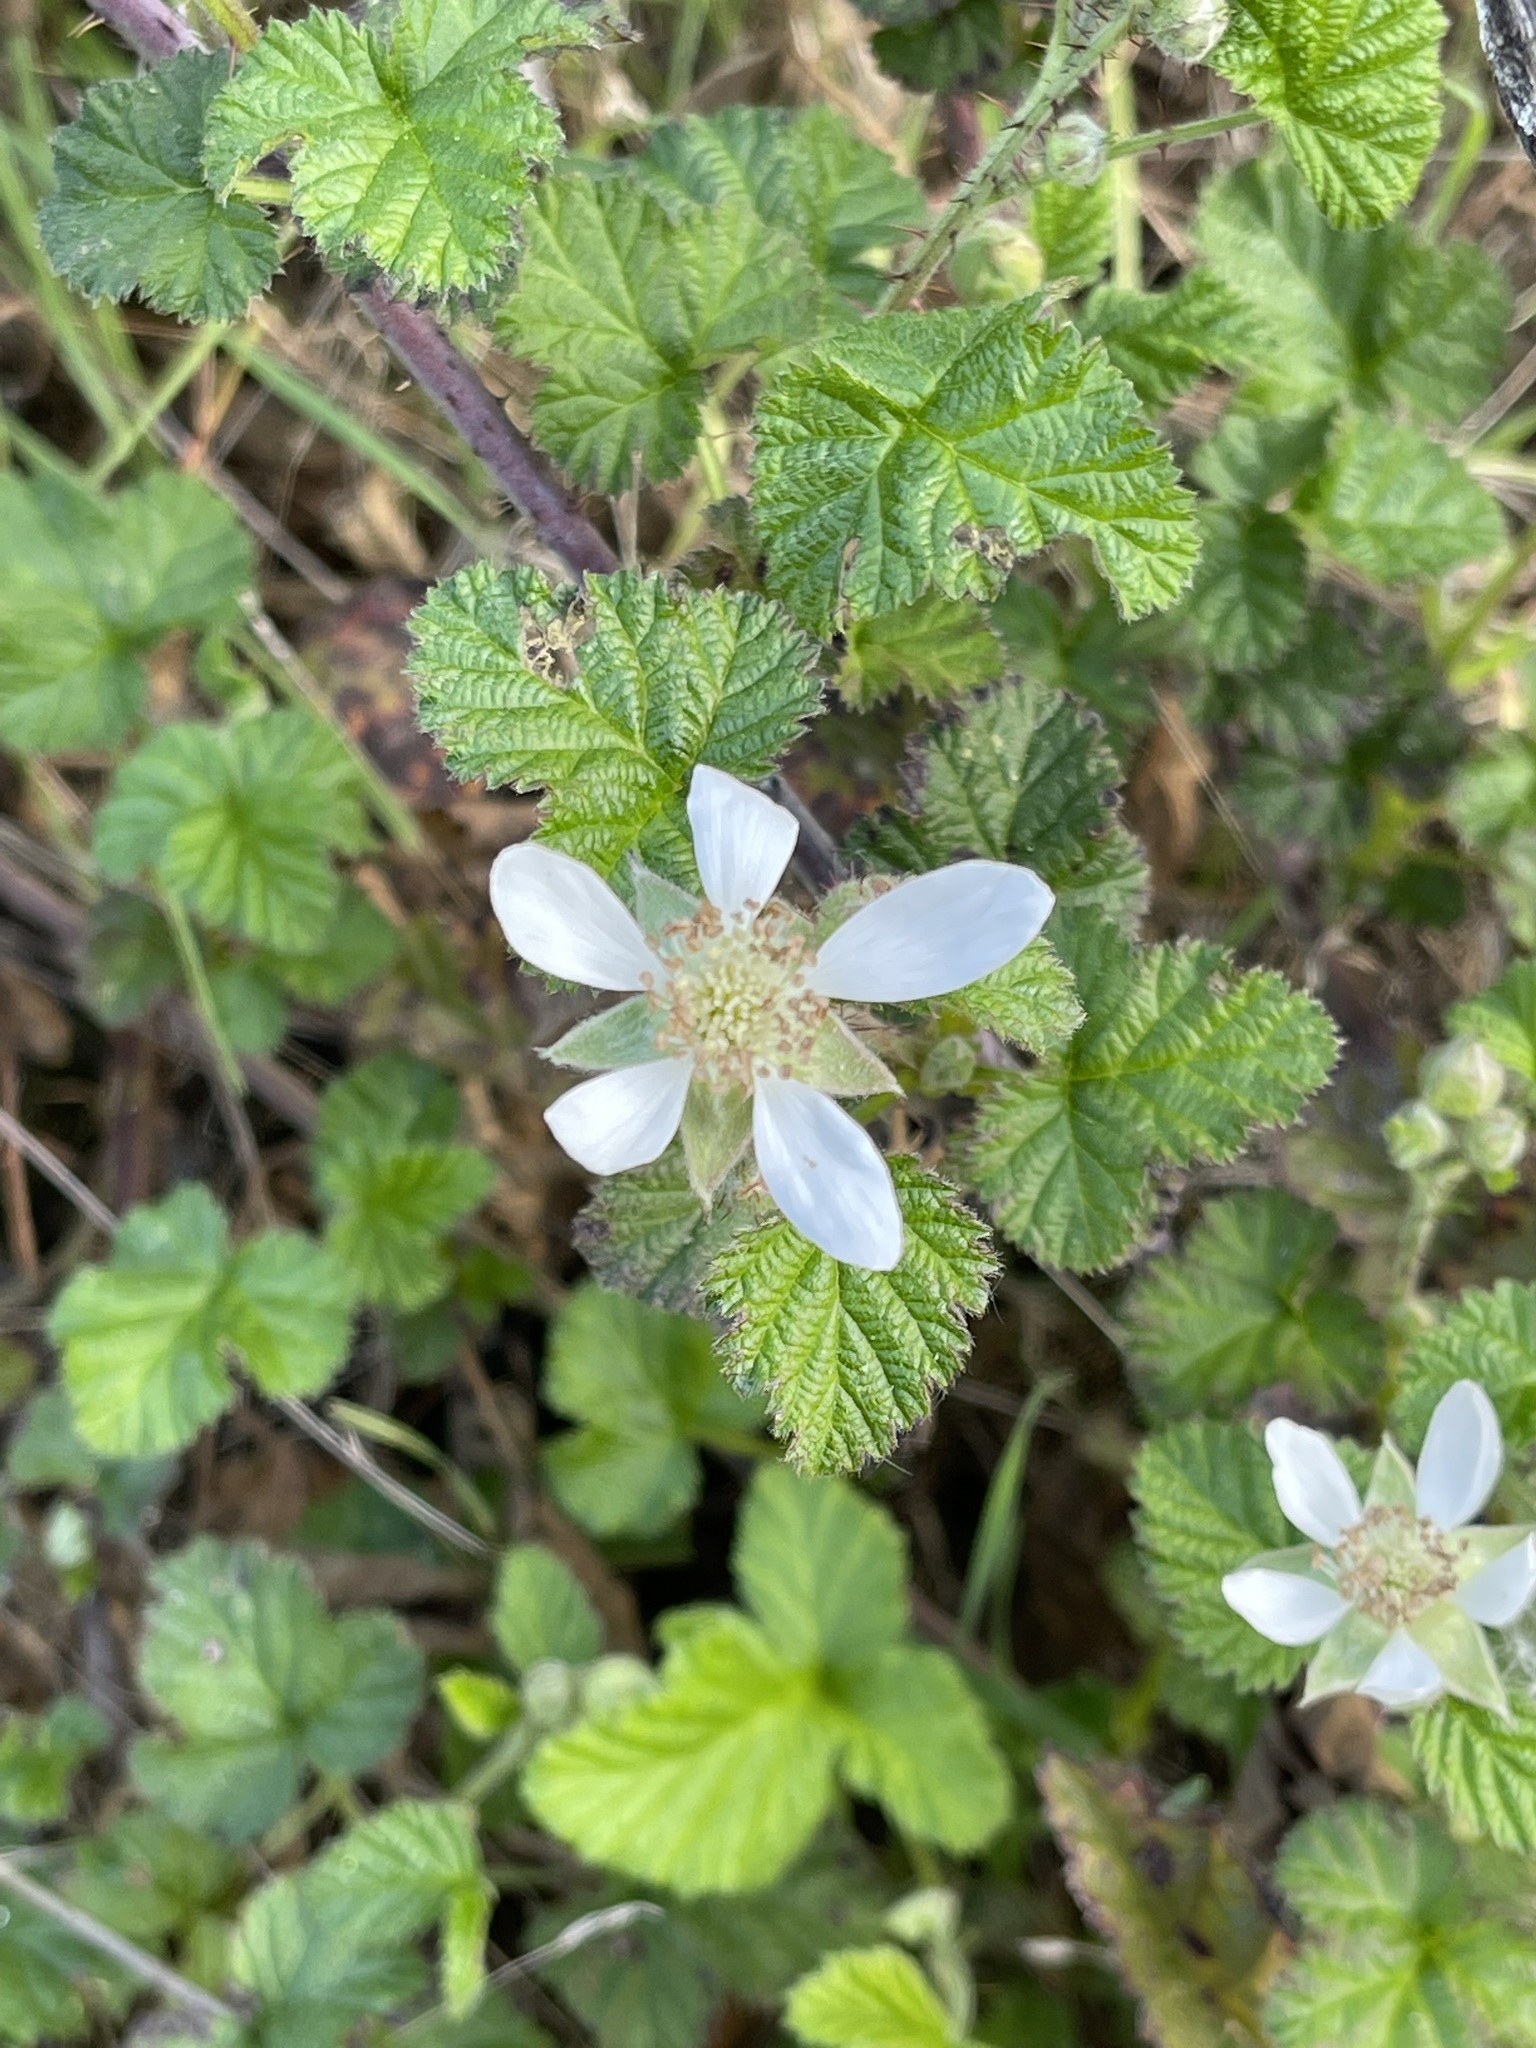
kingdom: Plantae
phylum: Tracheophyta
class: Magnoliopsida
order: Rosales
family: Rosaceae
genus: Rubus
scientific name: Rubus ursinus
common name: Pacific blackberry
